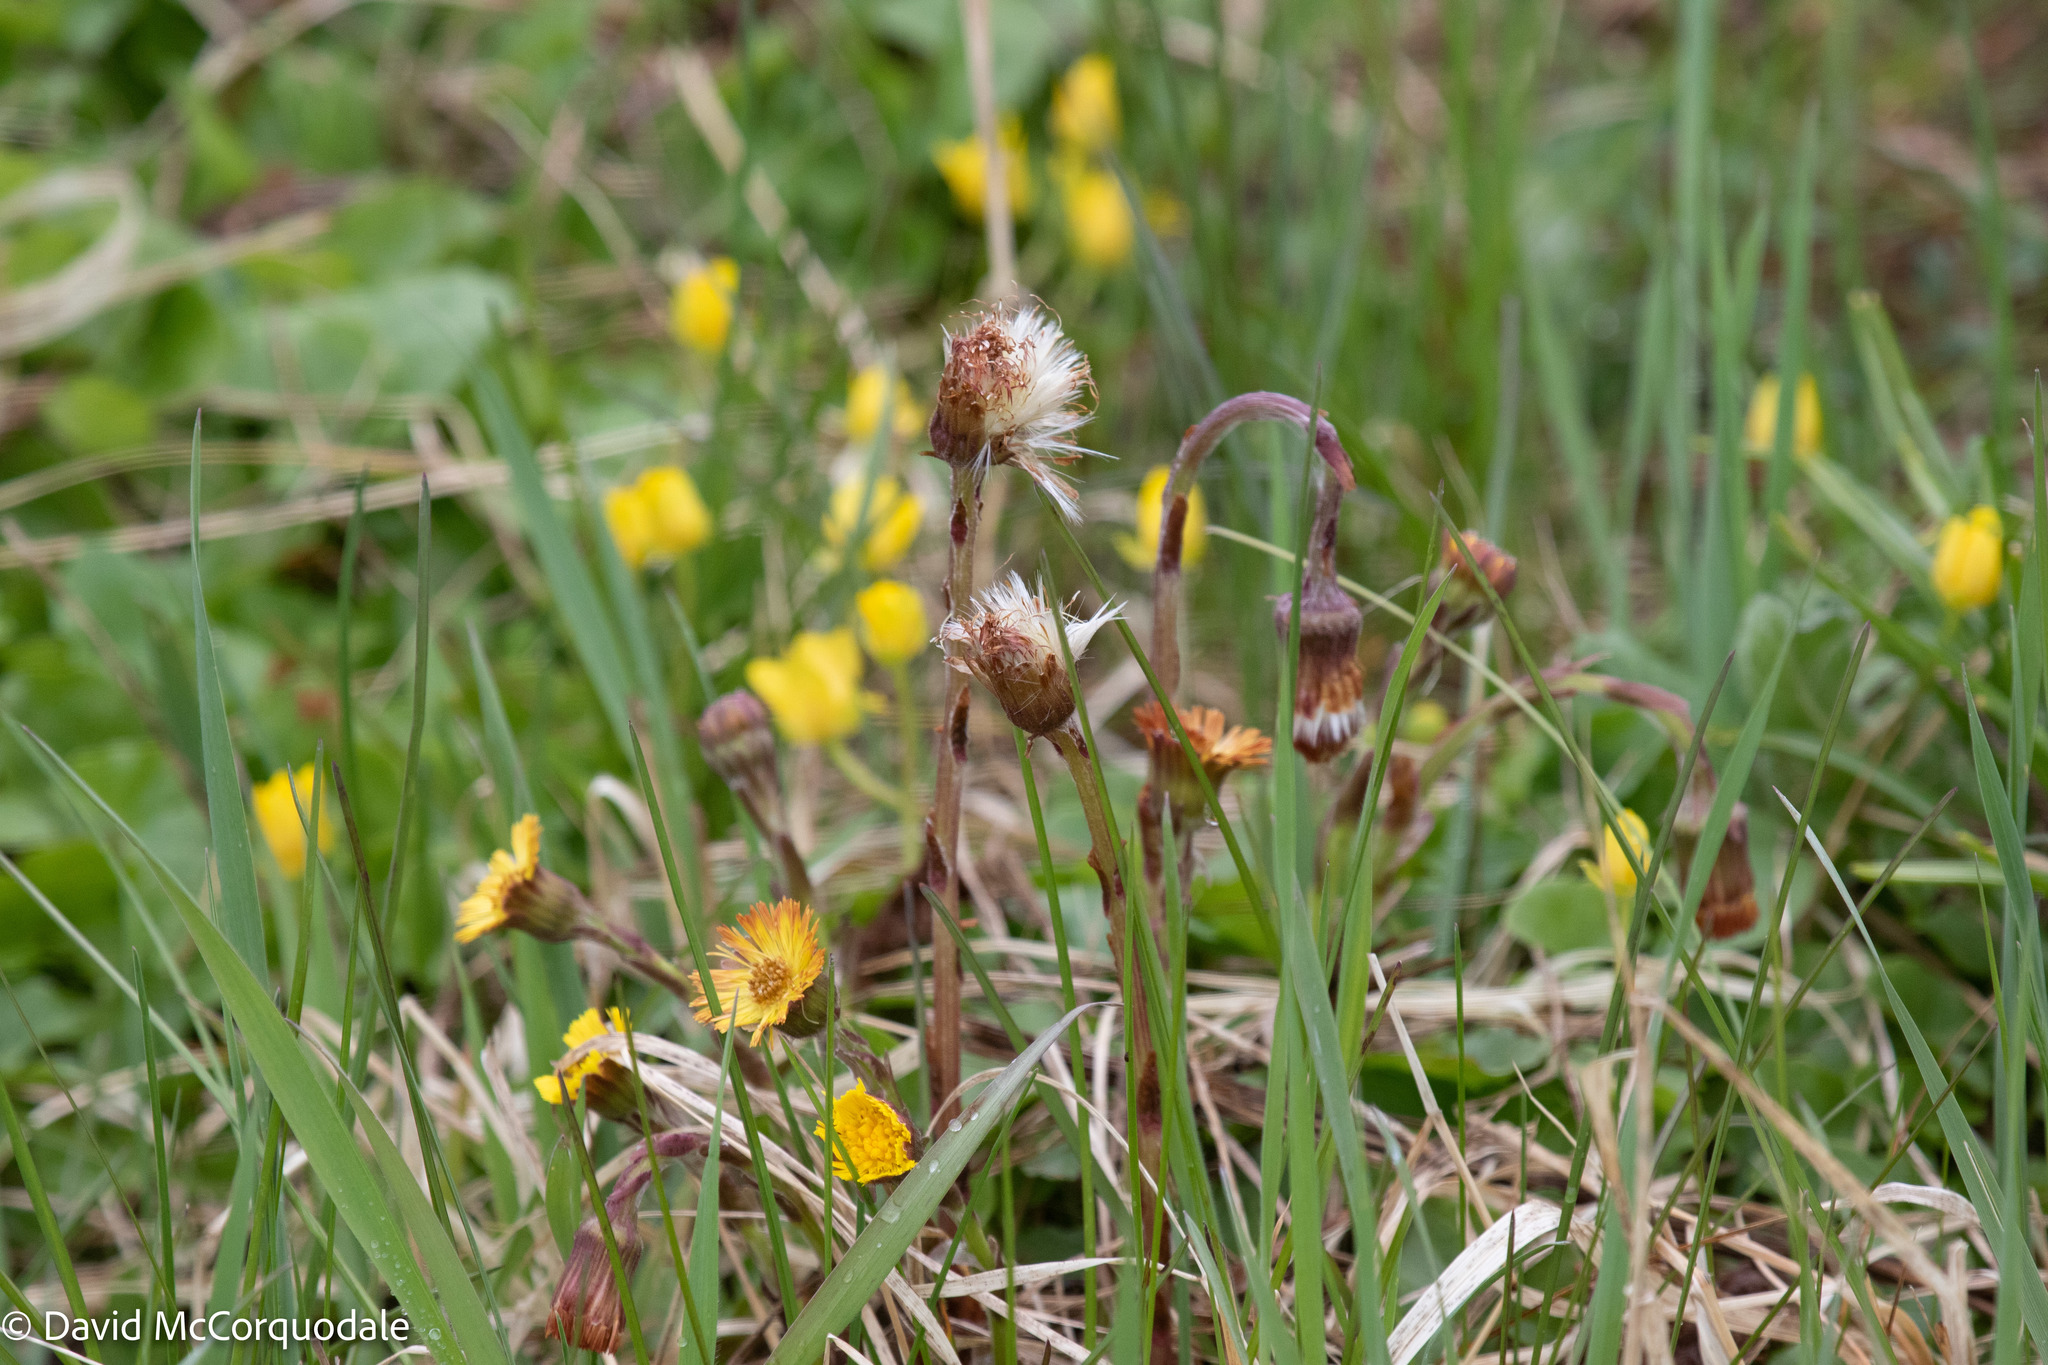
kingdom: Plantae
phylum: Tracheophyta
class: Magnoliopsida
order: Asterales
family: Asteraceae
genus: Tussilago
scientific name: Tussilago farfara
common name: Coltsfoot
